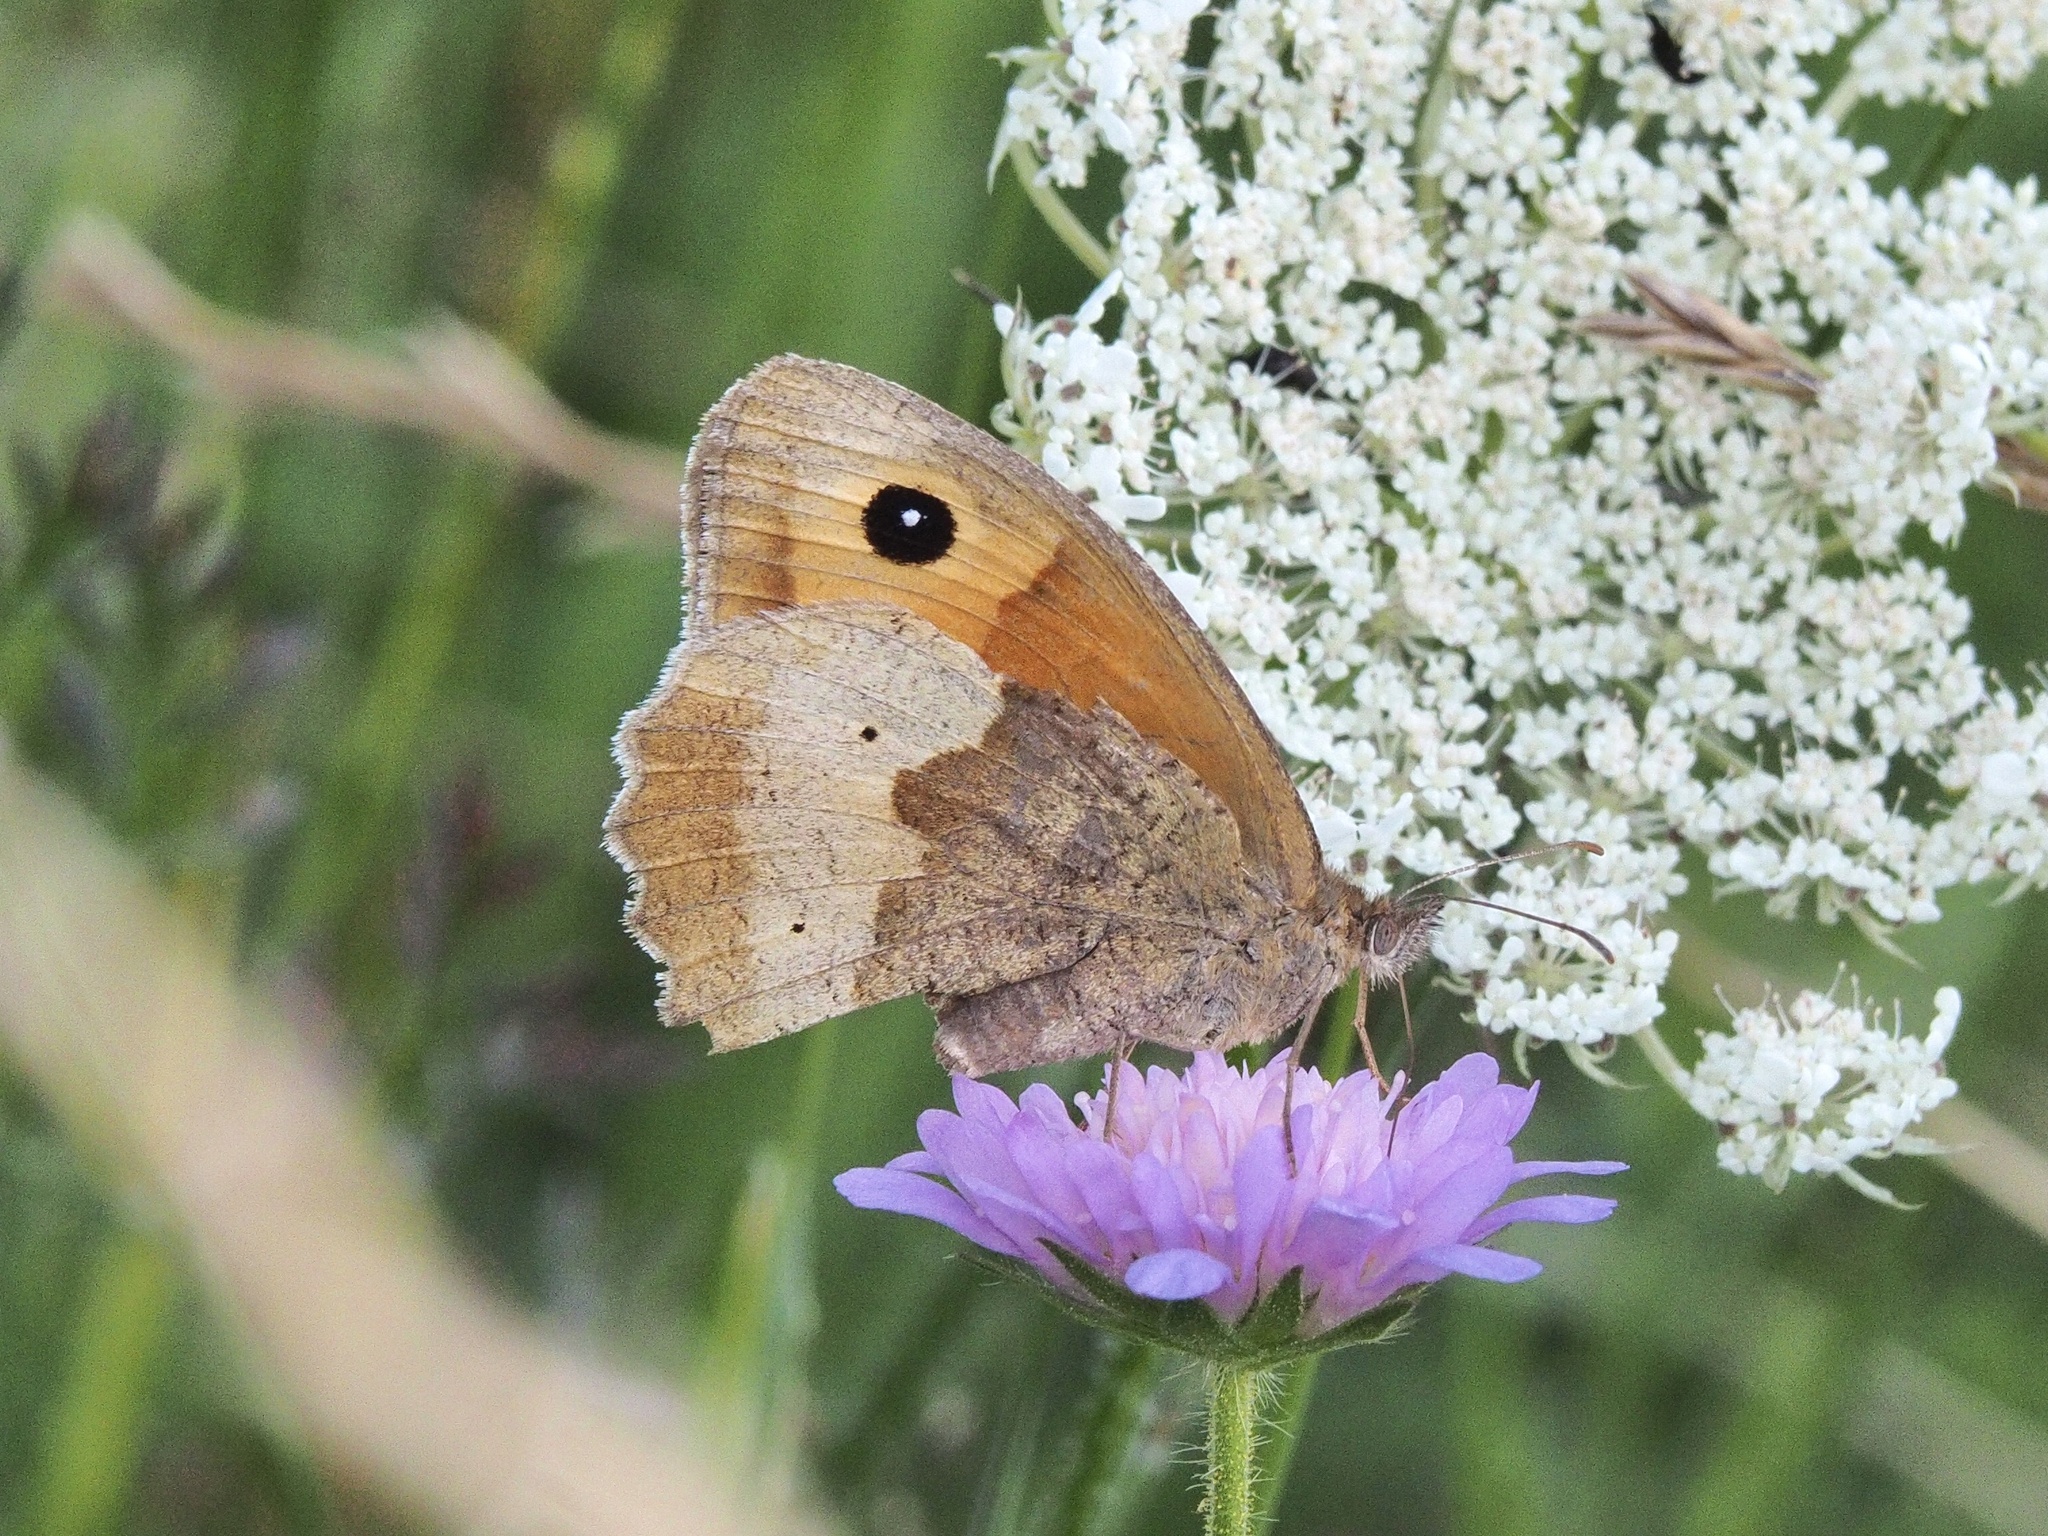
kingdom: Animalia
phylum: Arthropoda
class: Insecta
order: Lepidoptera
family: Nymphalidae
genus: Maniola
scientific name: Maniola jurtina
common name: Meadow brown
